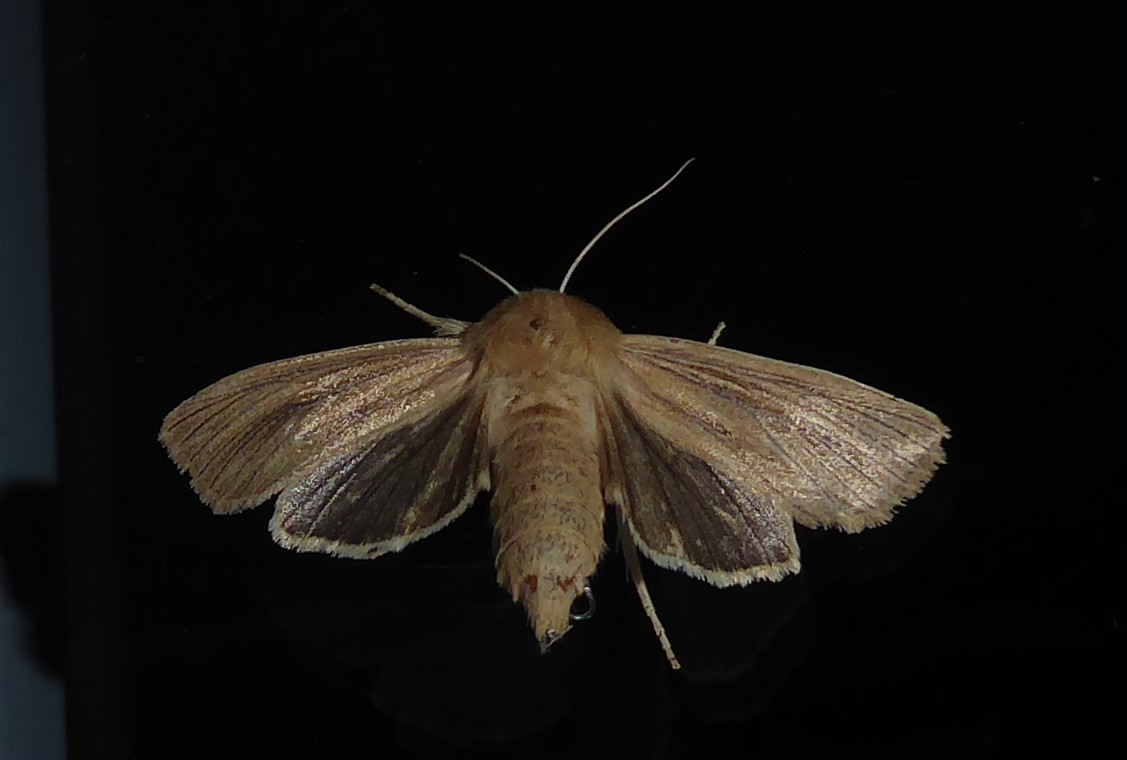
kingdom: Animalia
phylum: Arthropoda
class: Insecta
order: Lepidoptera
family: Noctuidae
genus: Ichneutica
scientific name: Ichneutica arotis
